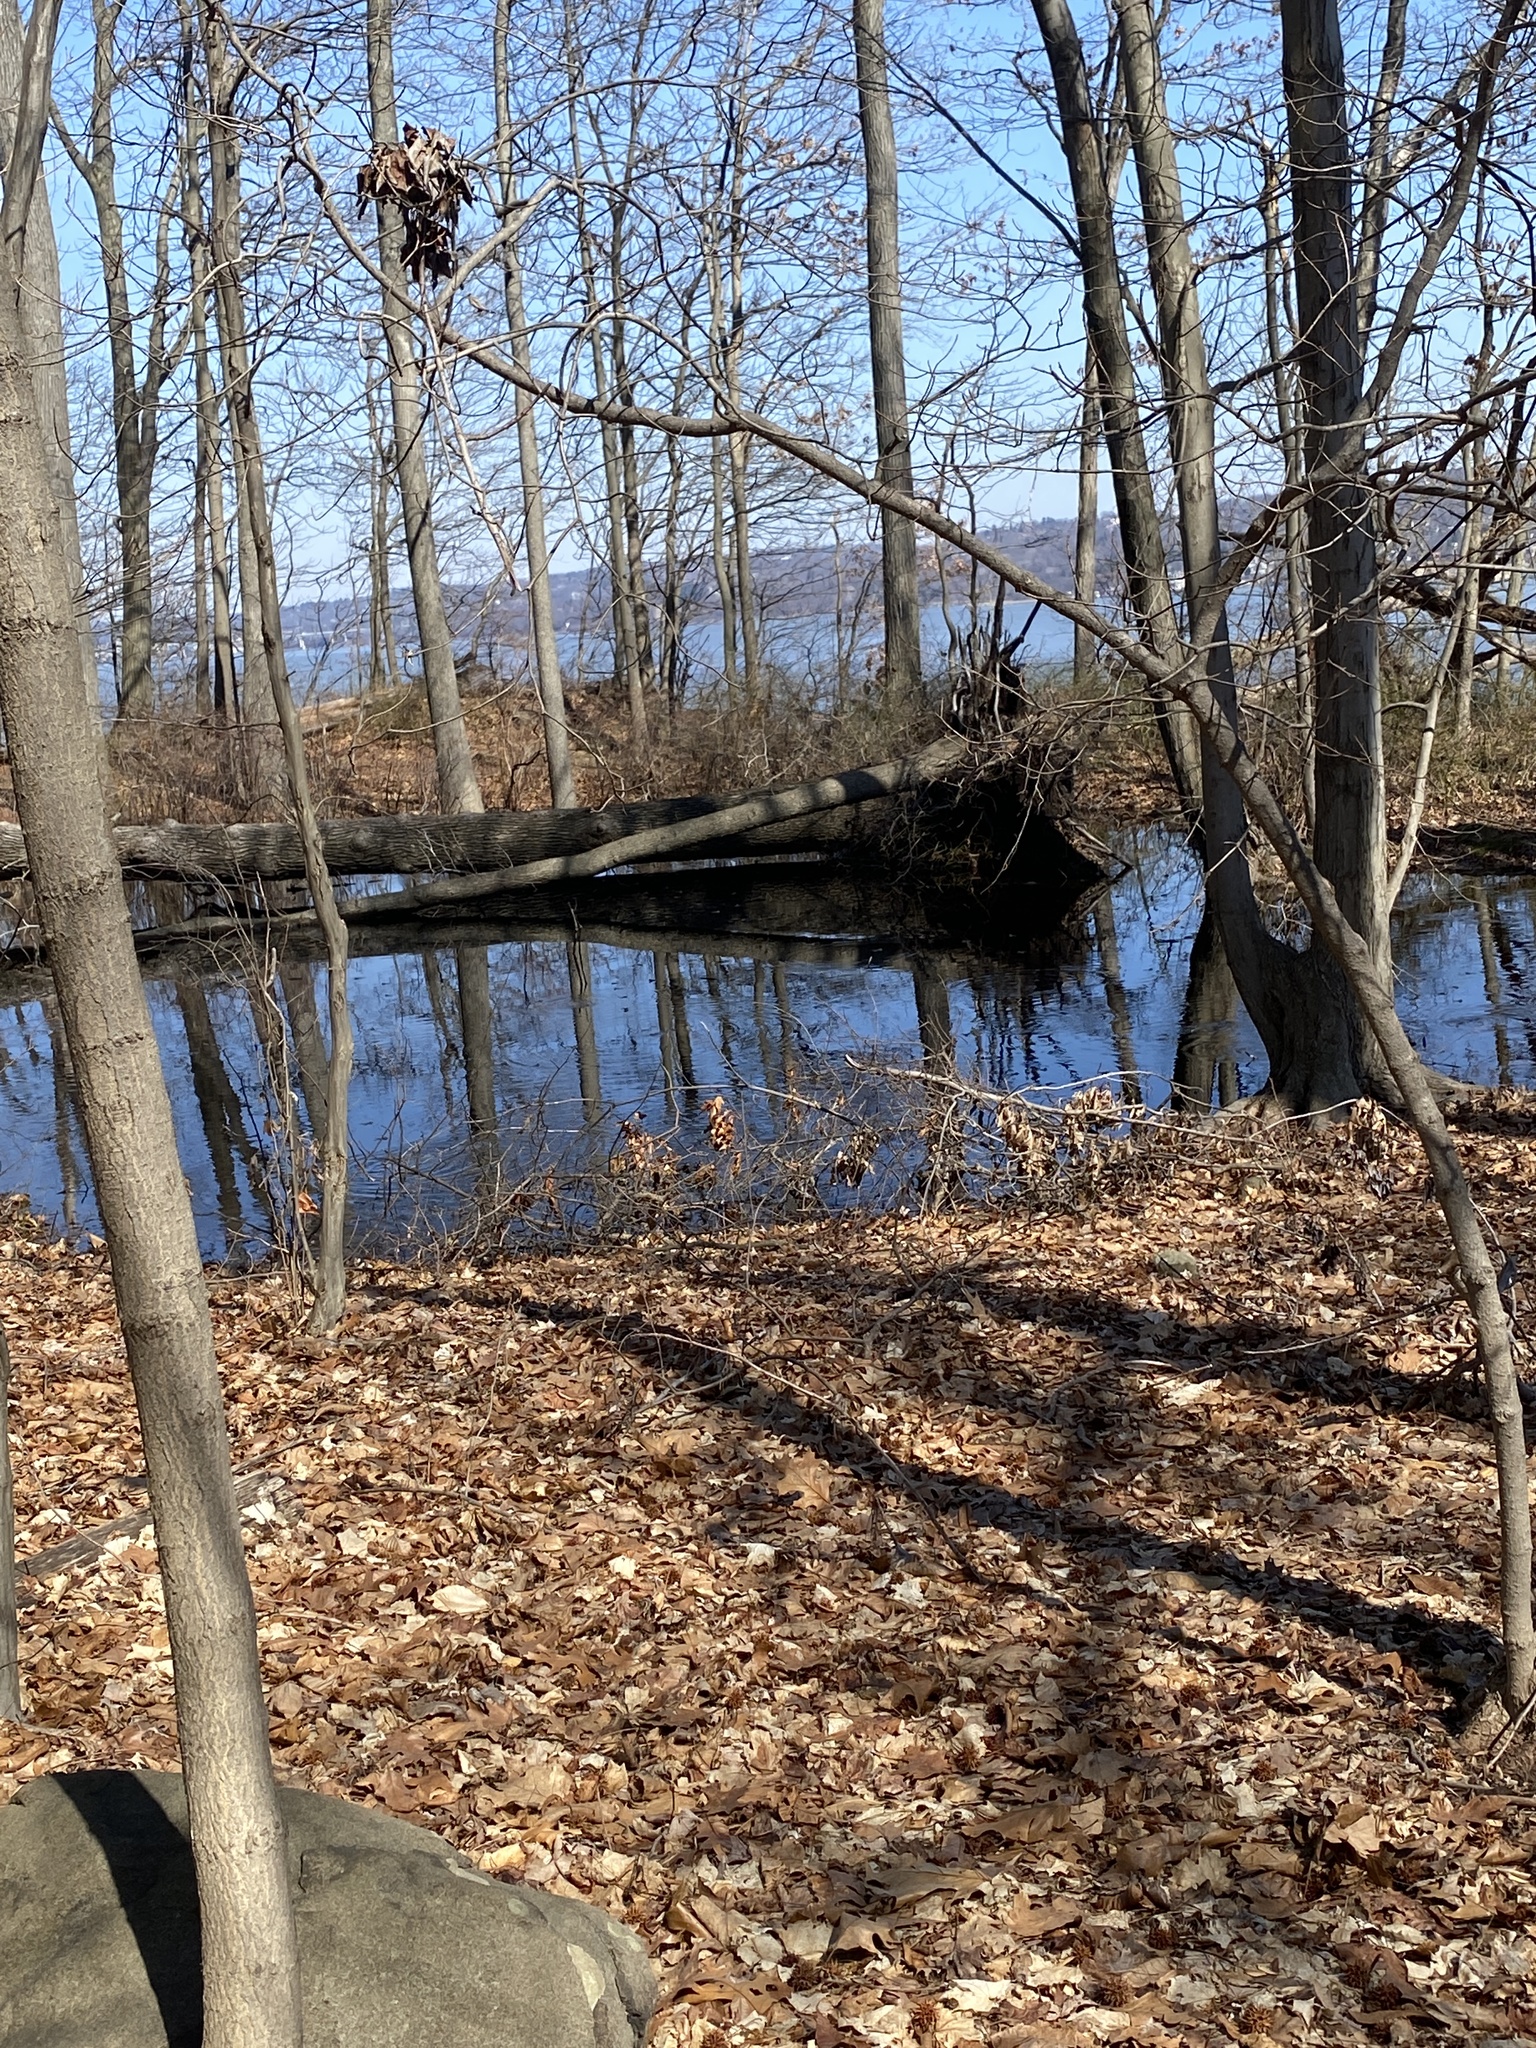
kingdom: Animalia
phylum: Chordata
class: Amphibia
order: Anura
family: Ranidae
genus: Lithobates
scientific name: Lithobates sylvaticus
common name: Wood frog
